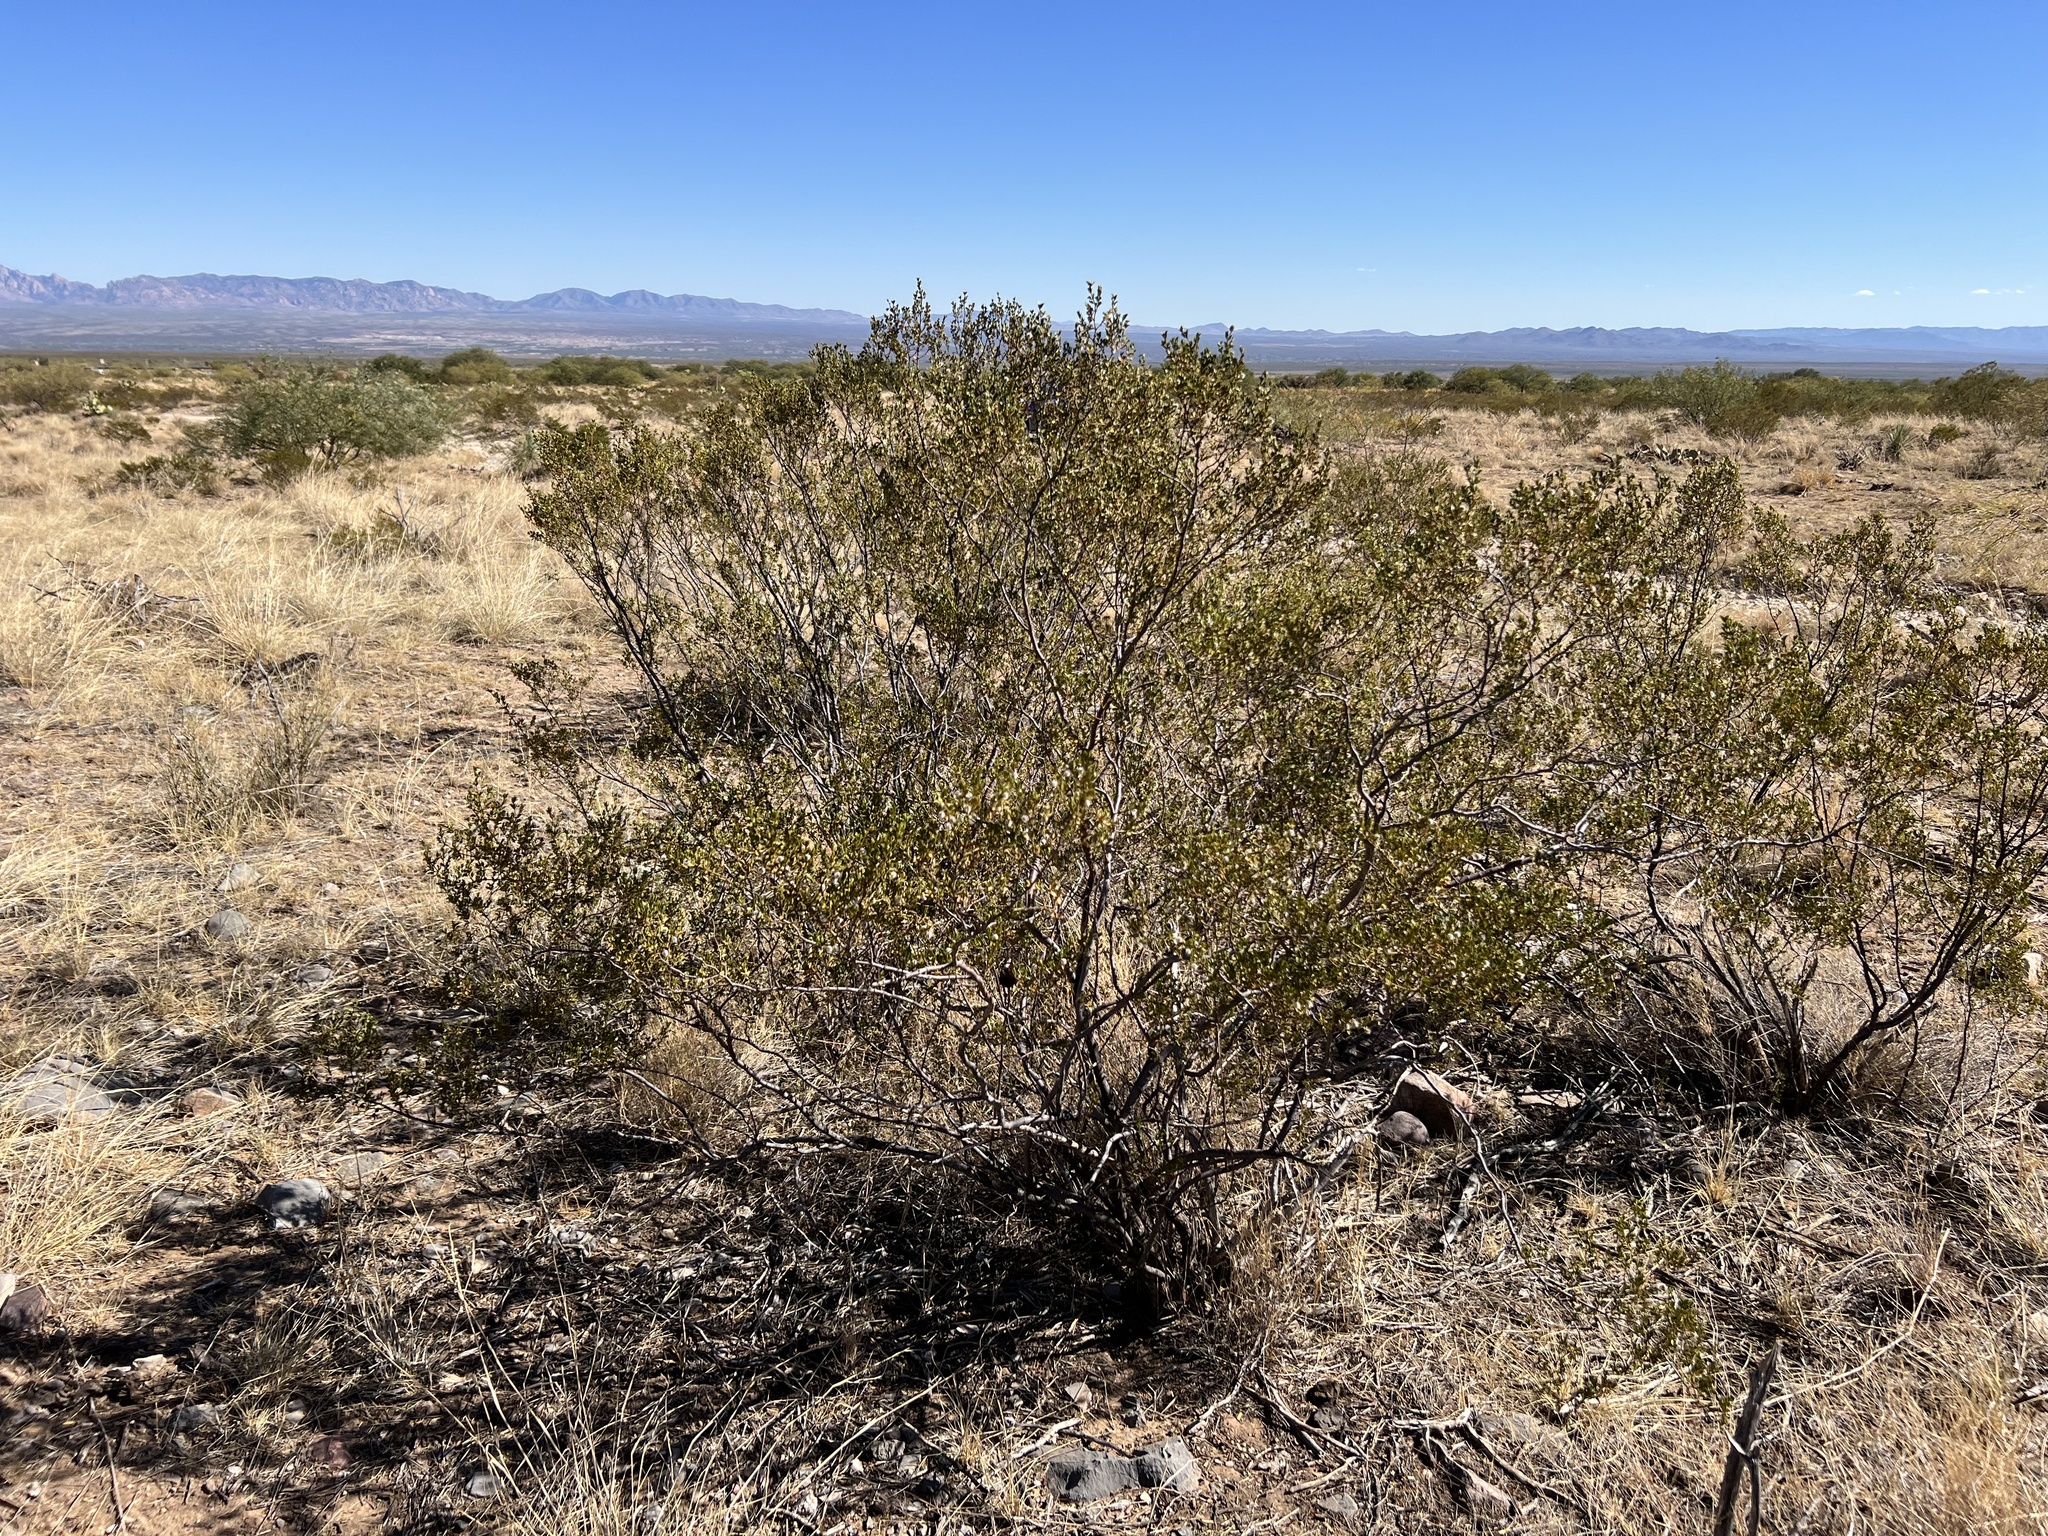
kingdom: Plantae
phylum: Tracheophyta
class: Magnoliopsida
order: Zygophyllales
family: Zygophyllaceae
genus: Larrea
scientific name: Larrea tridentata
